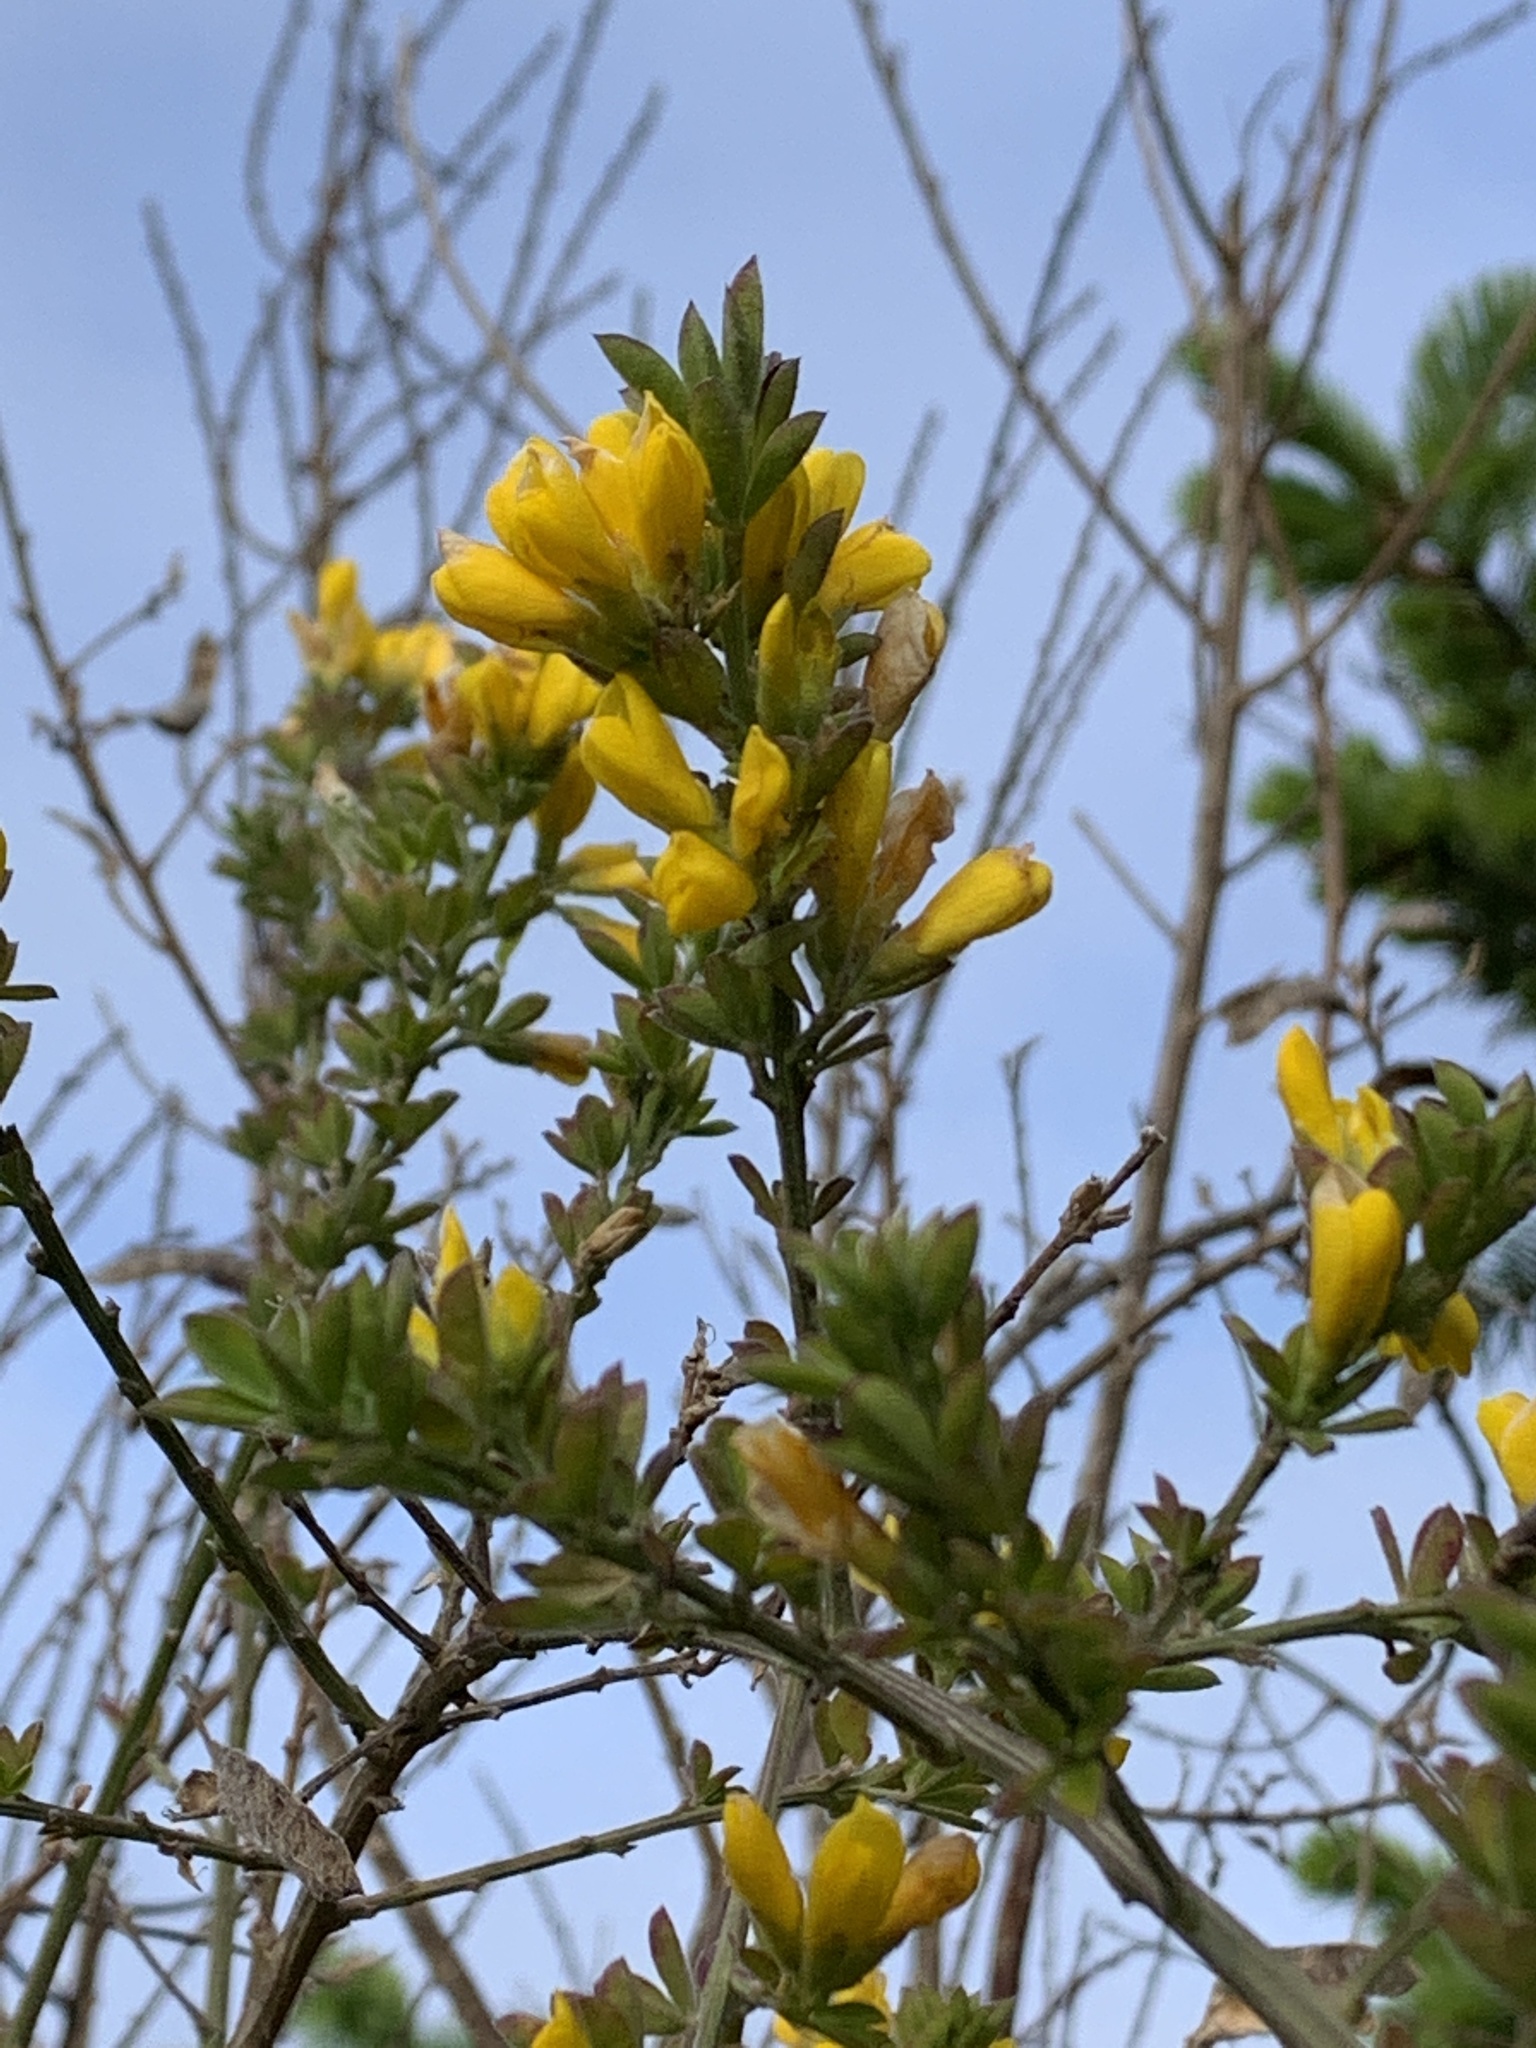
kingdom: Plantae
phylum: Tracheophyta
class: Magnoliopsida
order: Fabales
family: Fabaceae
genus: Genista
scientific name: Genista monspessulana
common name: Montpellier broom
